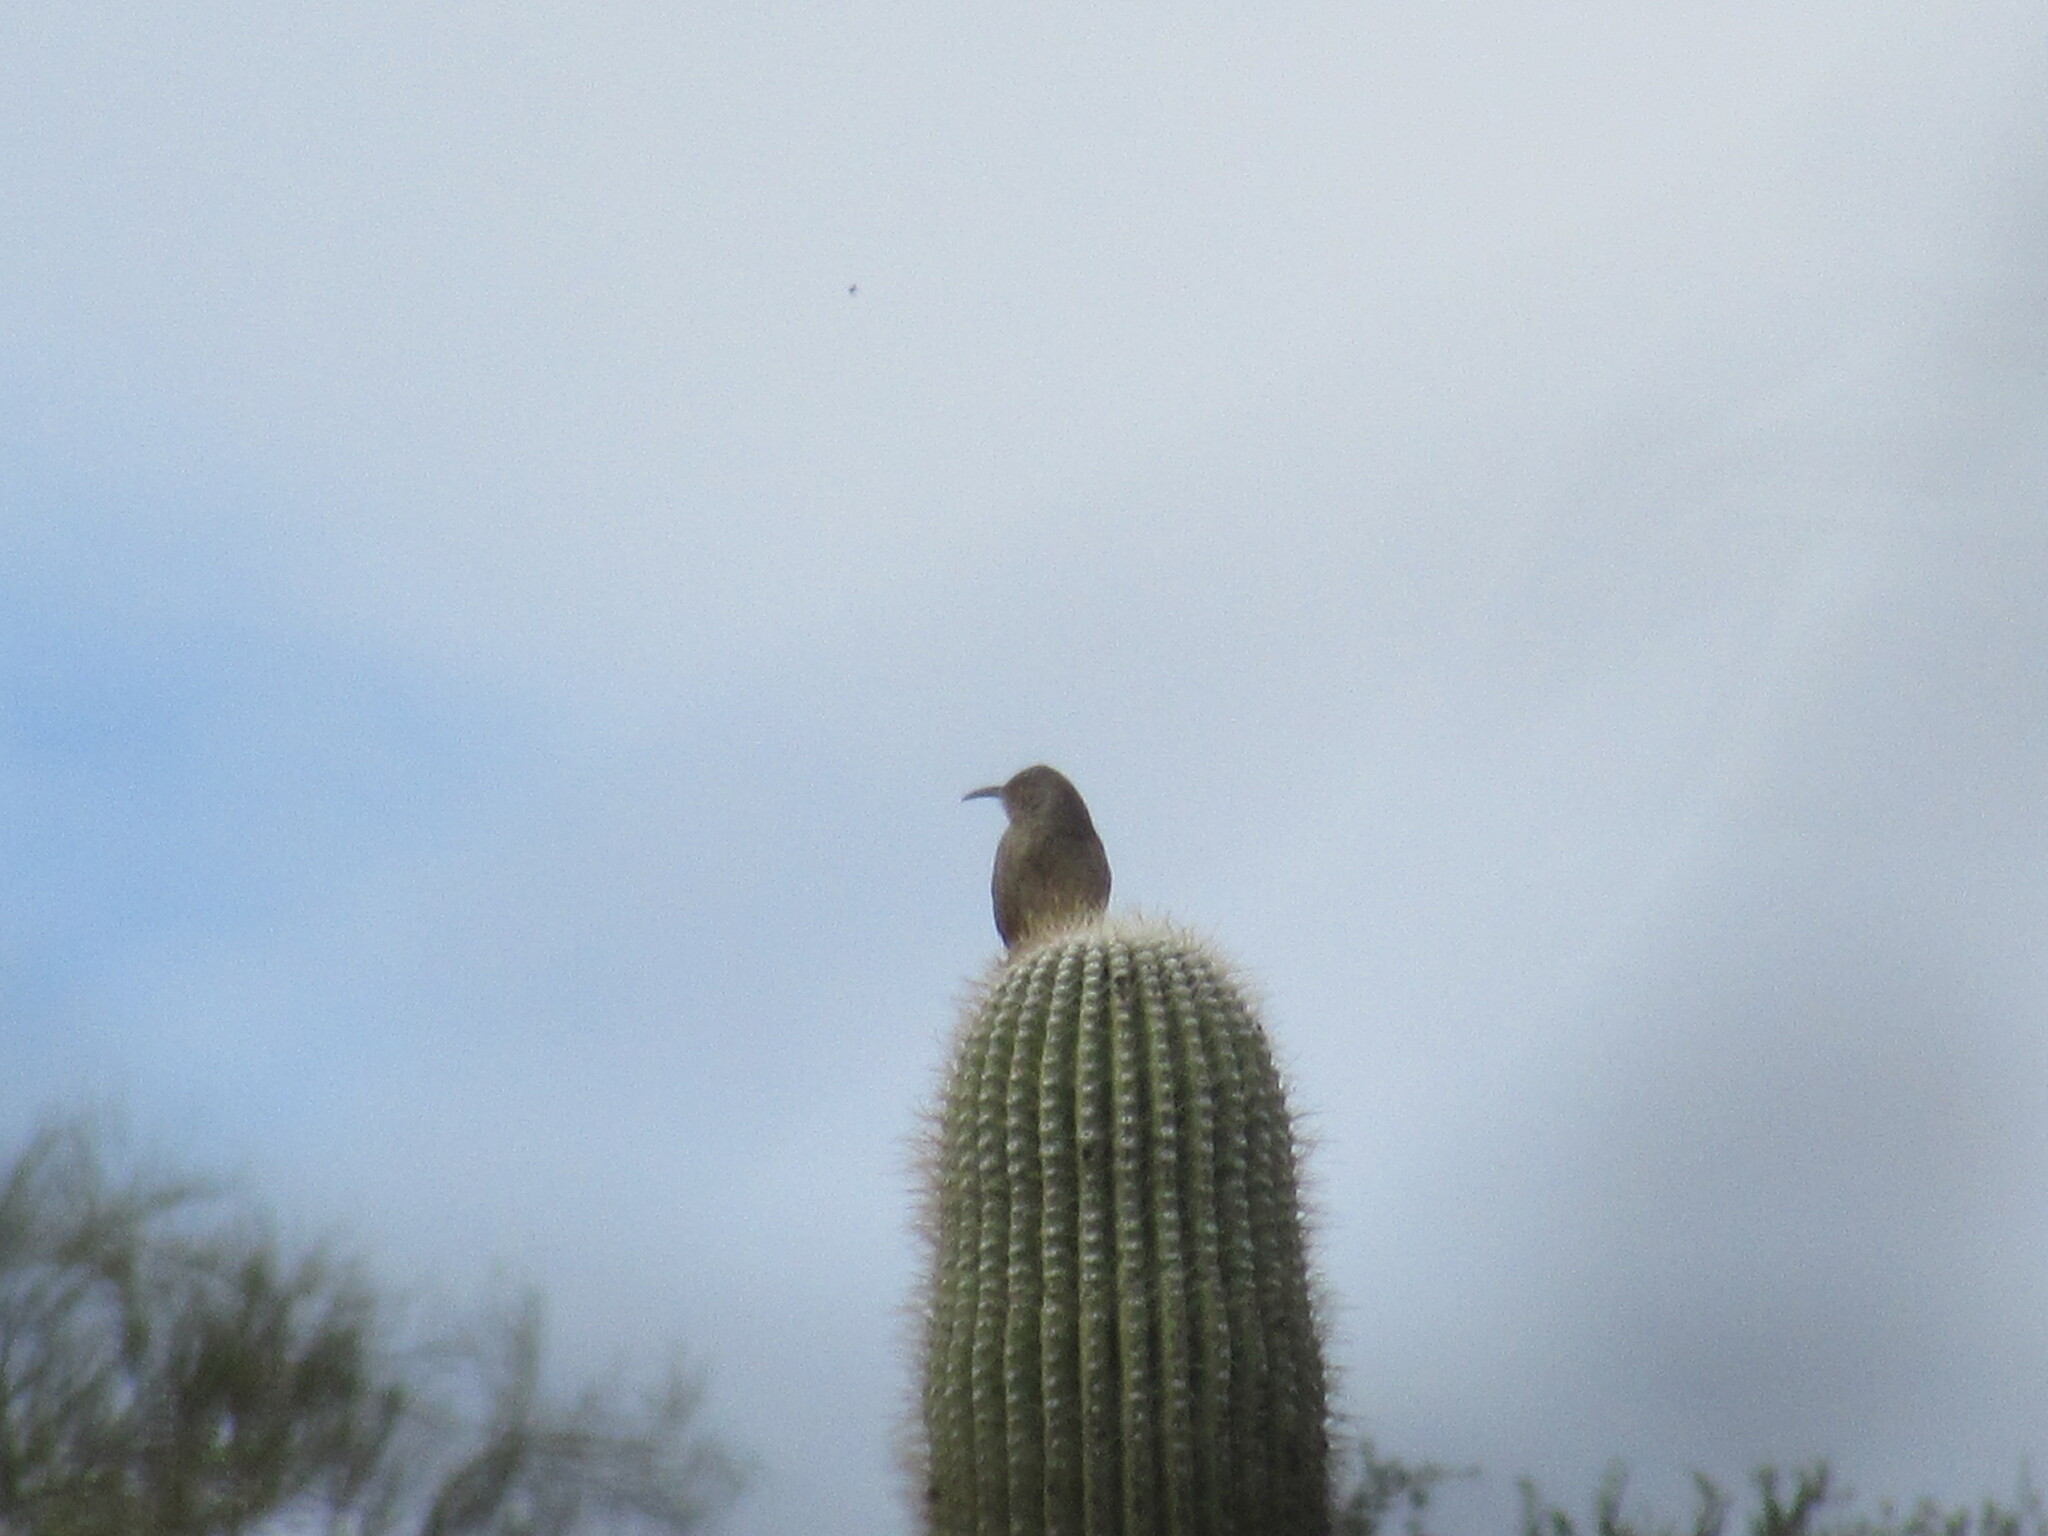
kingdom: Animalia
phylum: Chordata
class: Aves
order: Passeriformes
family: Mimidae
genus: Toxostoma
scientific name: Toxostoma curvirostre
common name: Curve-billed thrasher
